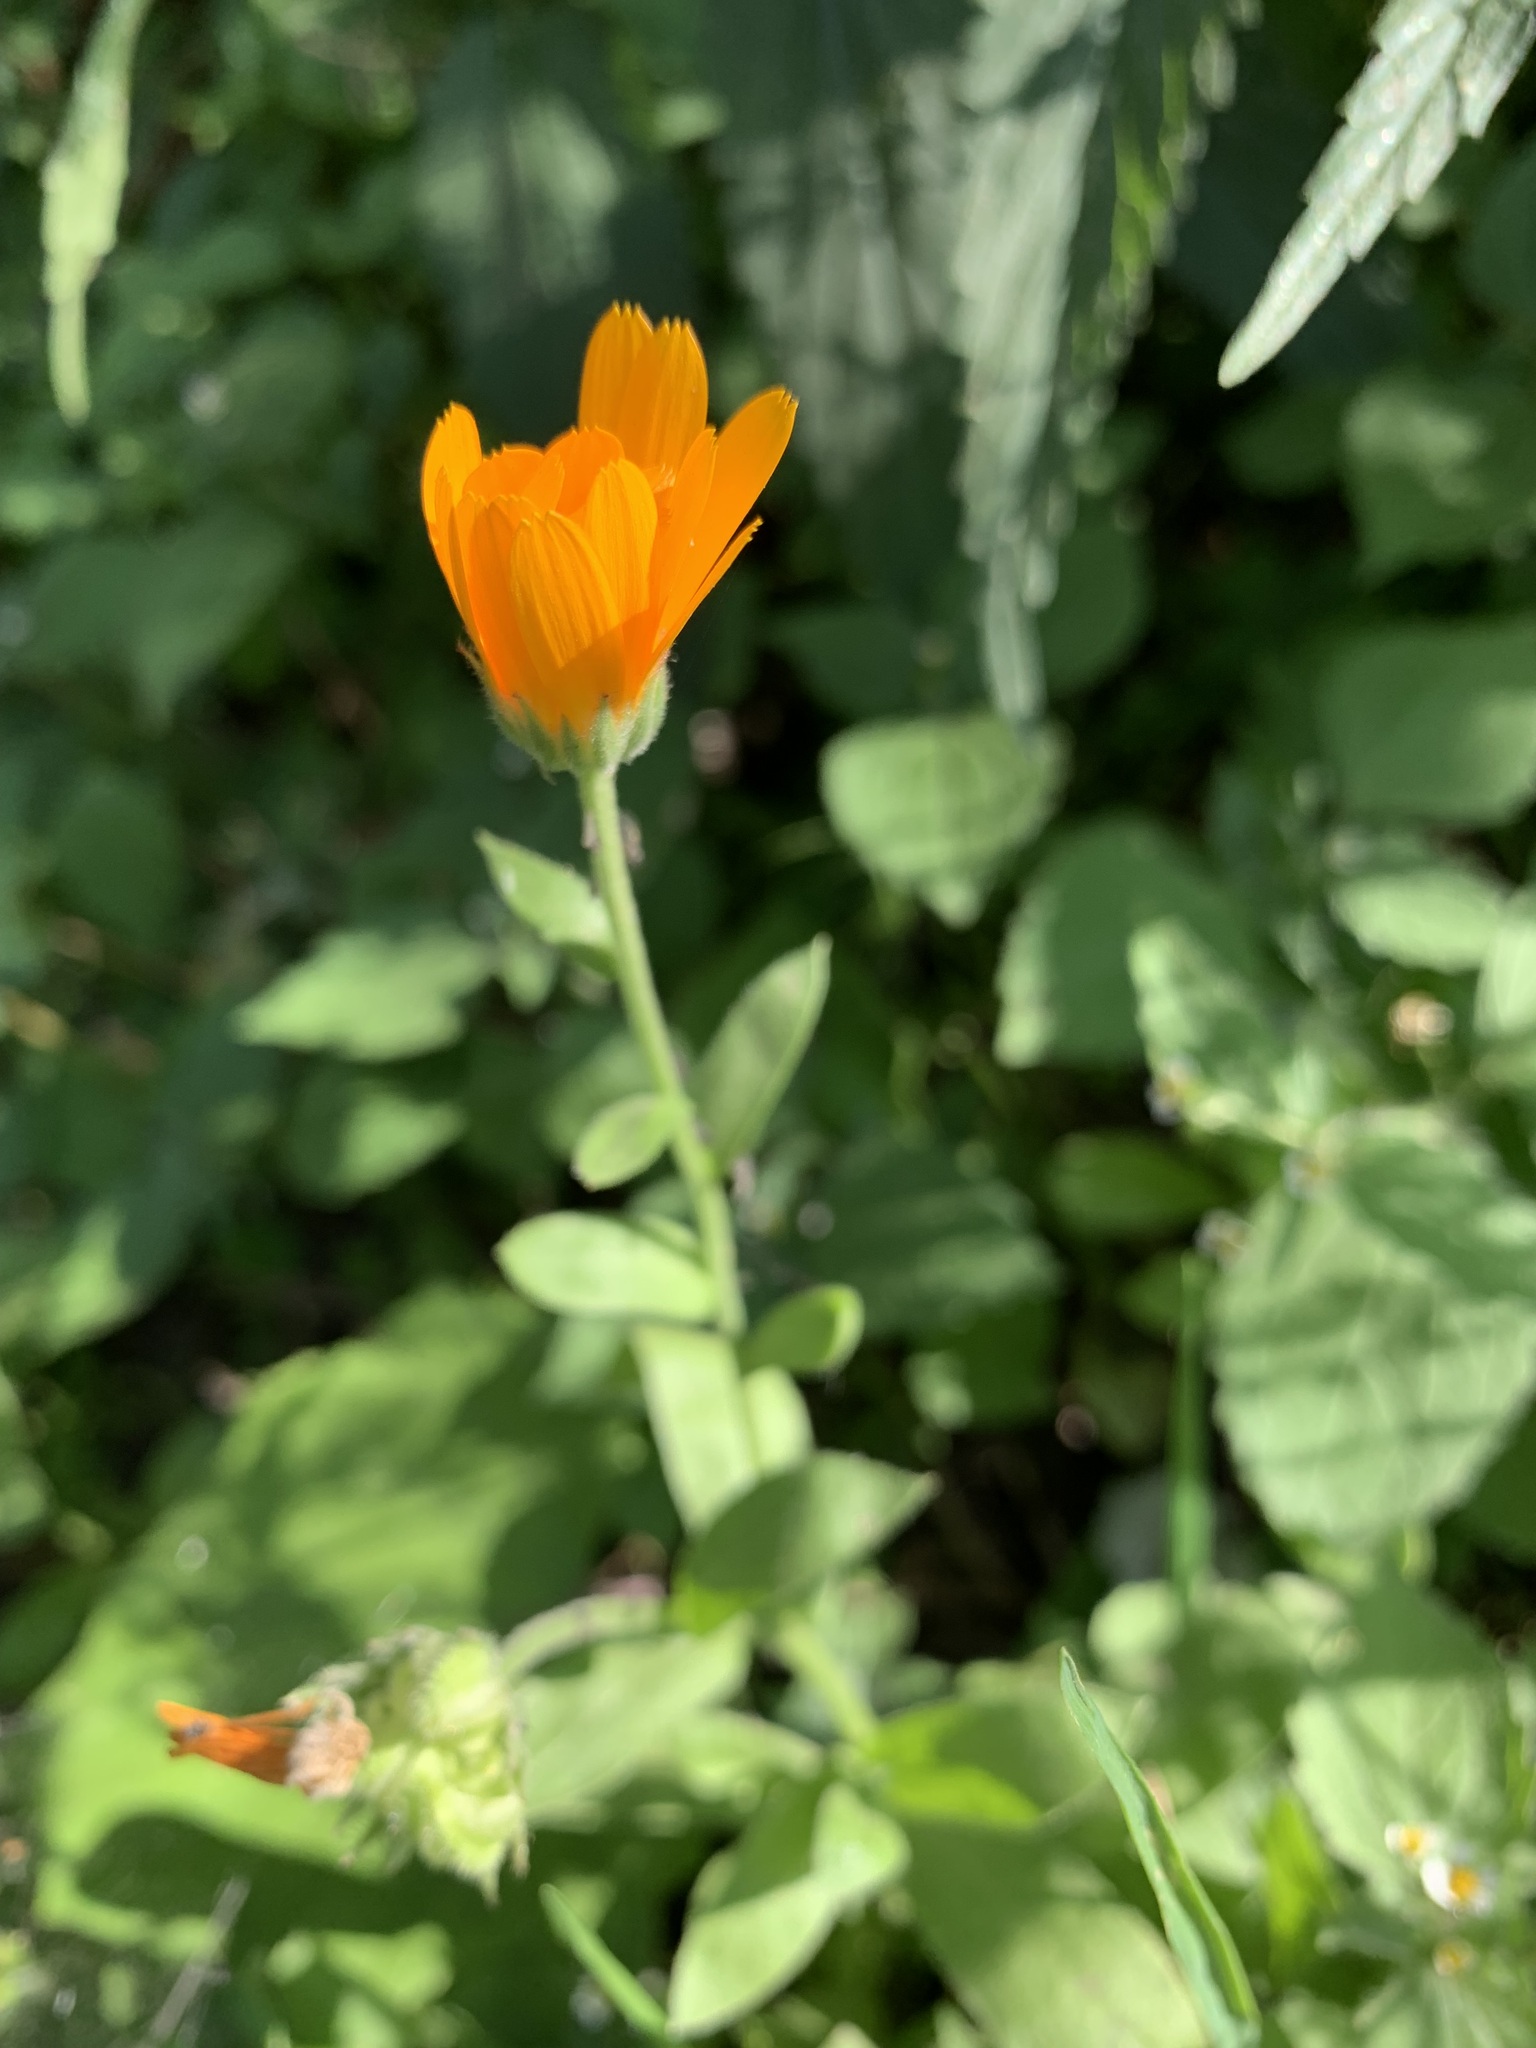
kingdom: Plantae
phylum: Tracheophyta
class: Magnoliopsida
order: Asterales
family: Asteraceae
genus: Calendula
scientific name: Calendula officinalis
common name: Pot marigold
